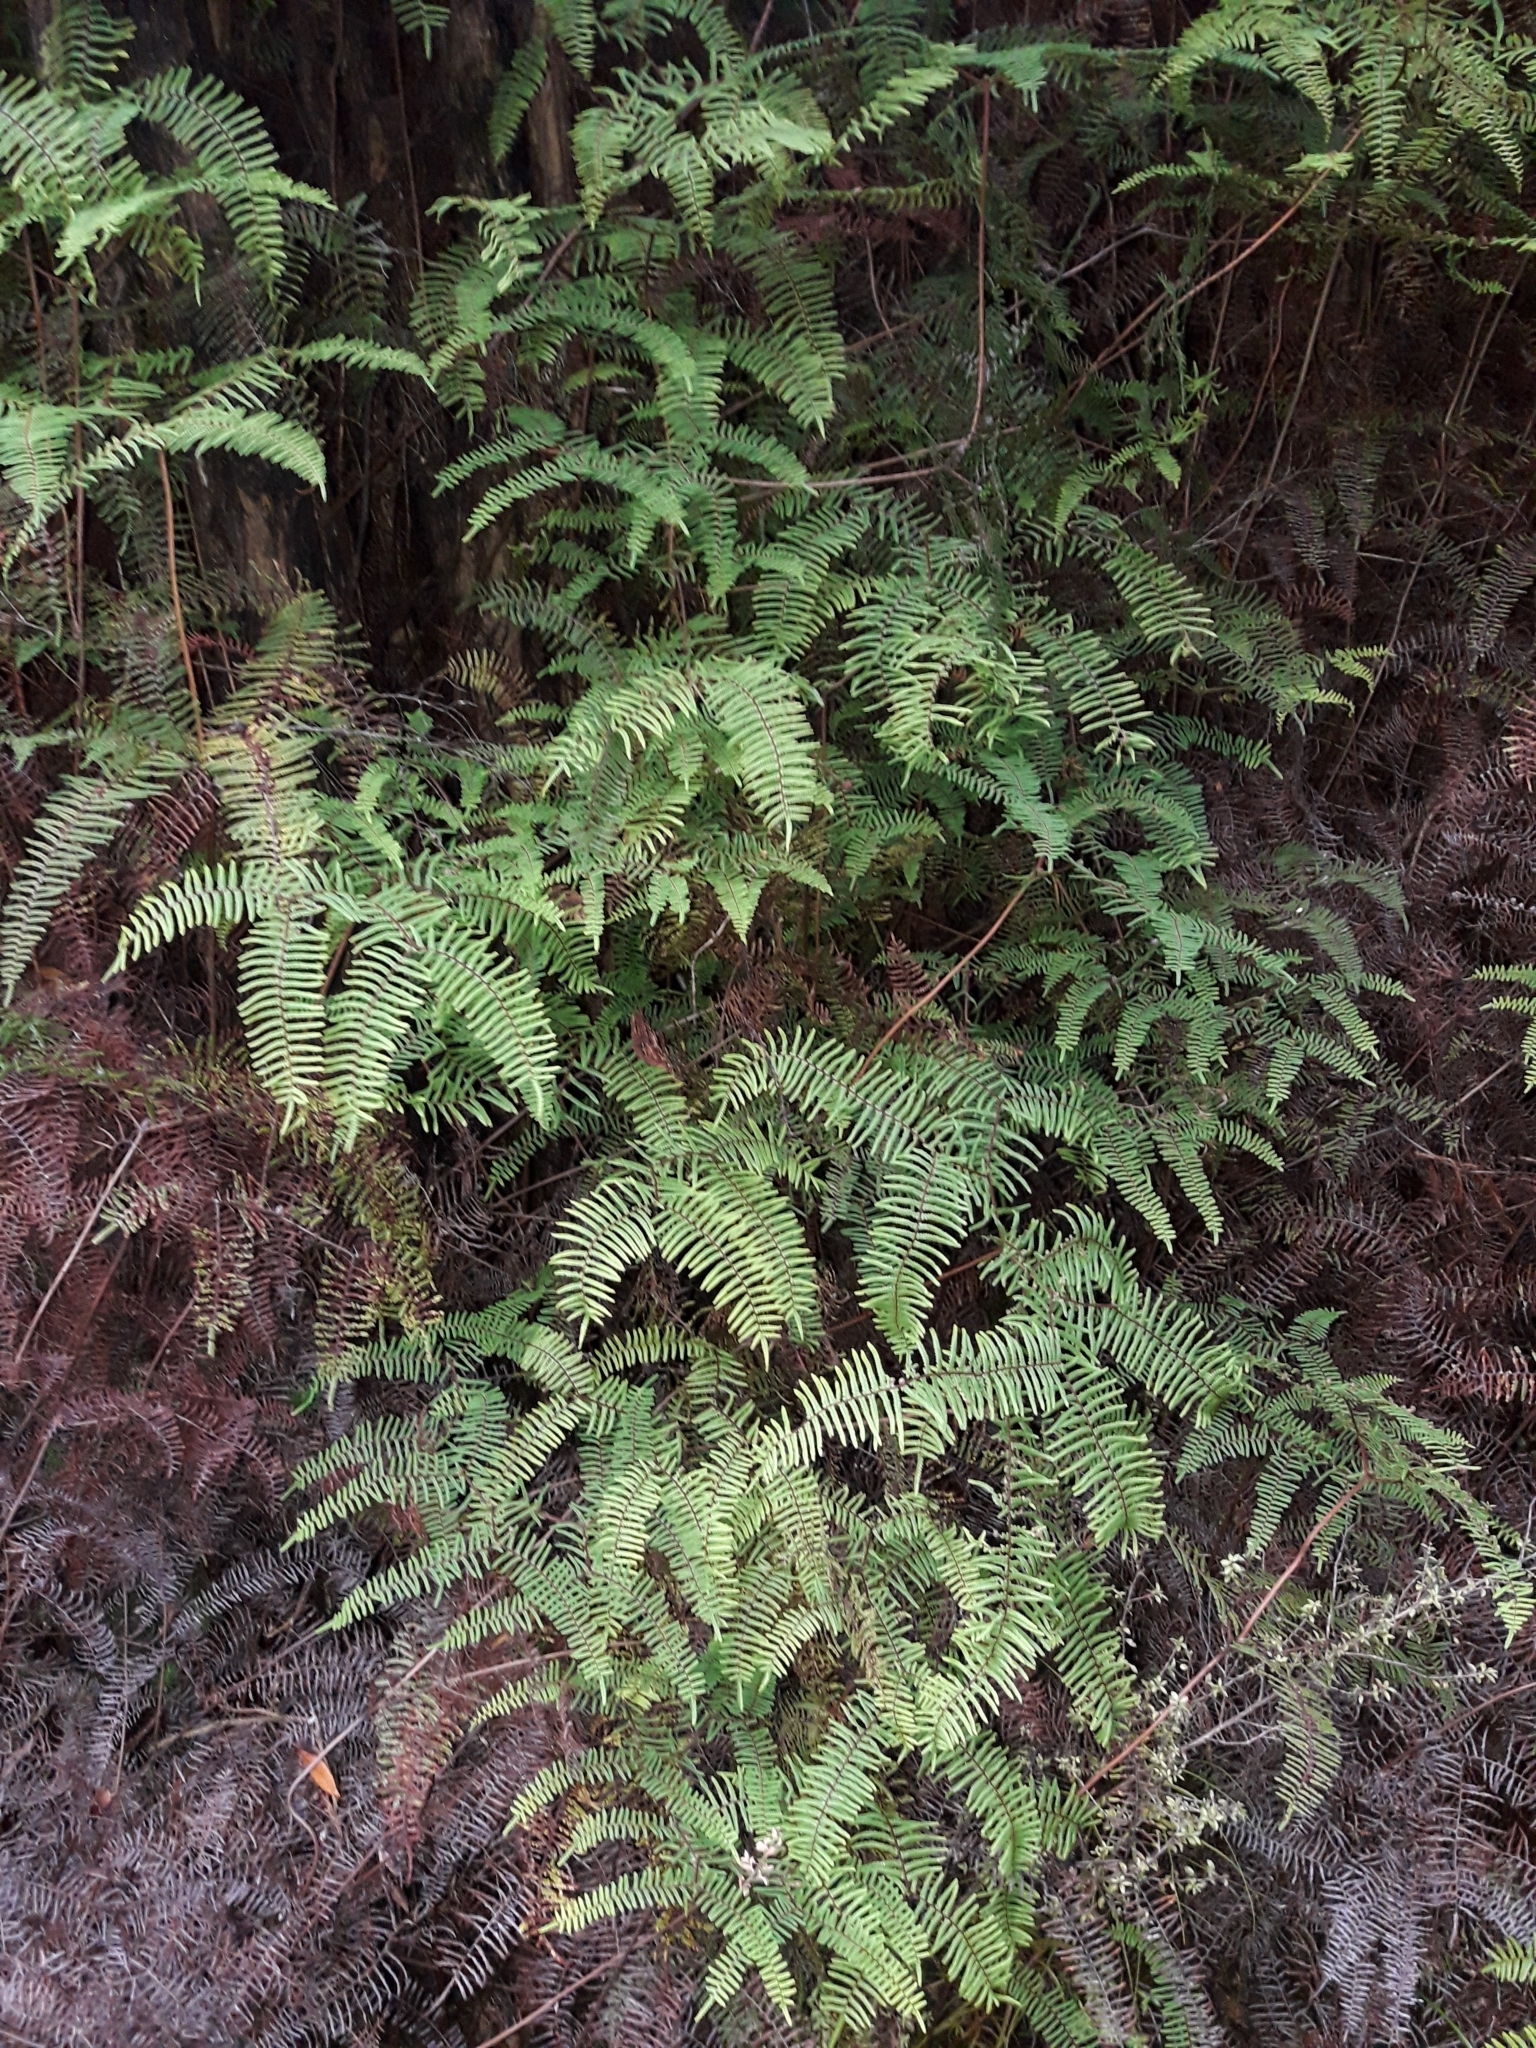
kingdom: Plantae
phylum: Tracheophyta
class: Polypodiopsida
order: Gleicheniales
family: Gleicheniaceae
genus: Gleichenia
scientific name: Gleichenia dicarpa
